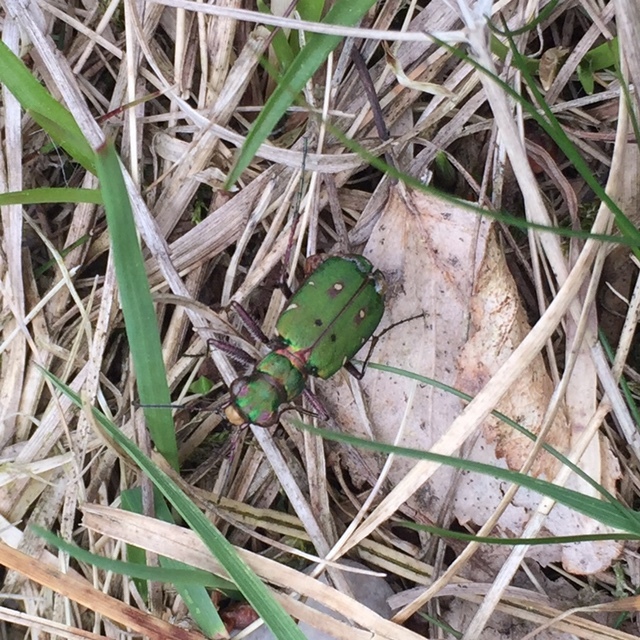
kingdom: Animalia
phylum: Arthropoda
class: Insecta
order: Coleoptera
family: Carabidae
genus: Cicindela
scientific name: Cicindela campestris
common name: Common tiger beetle
